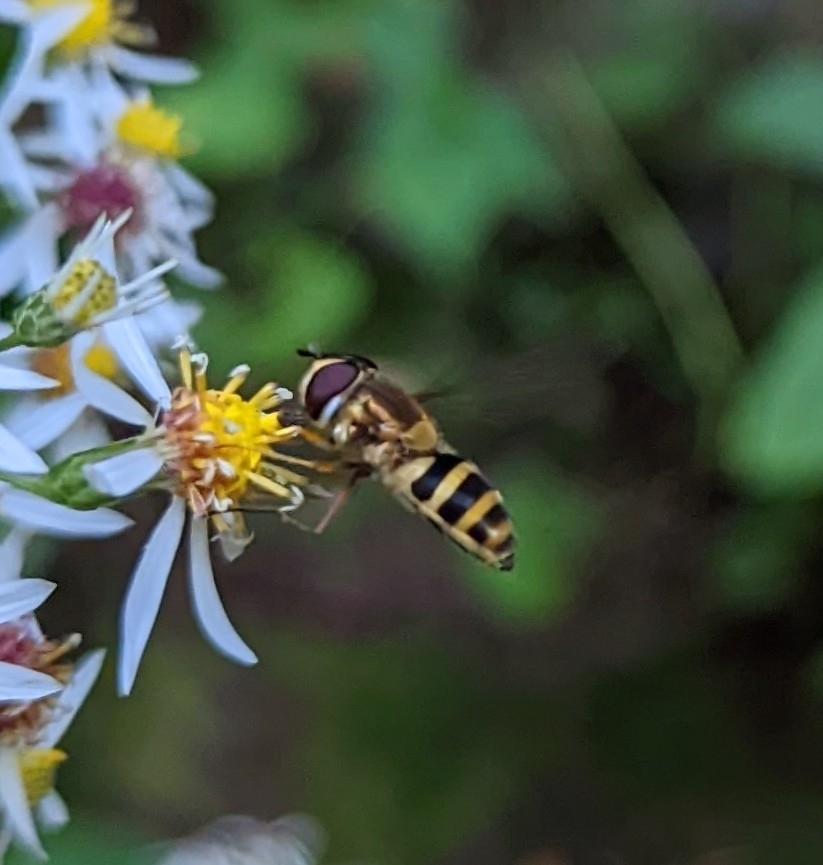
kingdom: Animalia
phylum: Arthropoda
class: Insecta
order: Diptera
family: Syrphidae
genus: Epistrophe
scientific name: Epistrophe grossulariae
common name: Black-horned smoothtail
